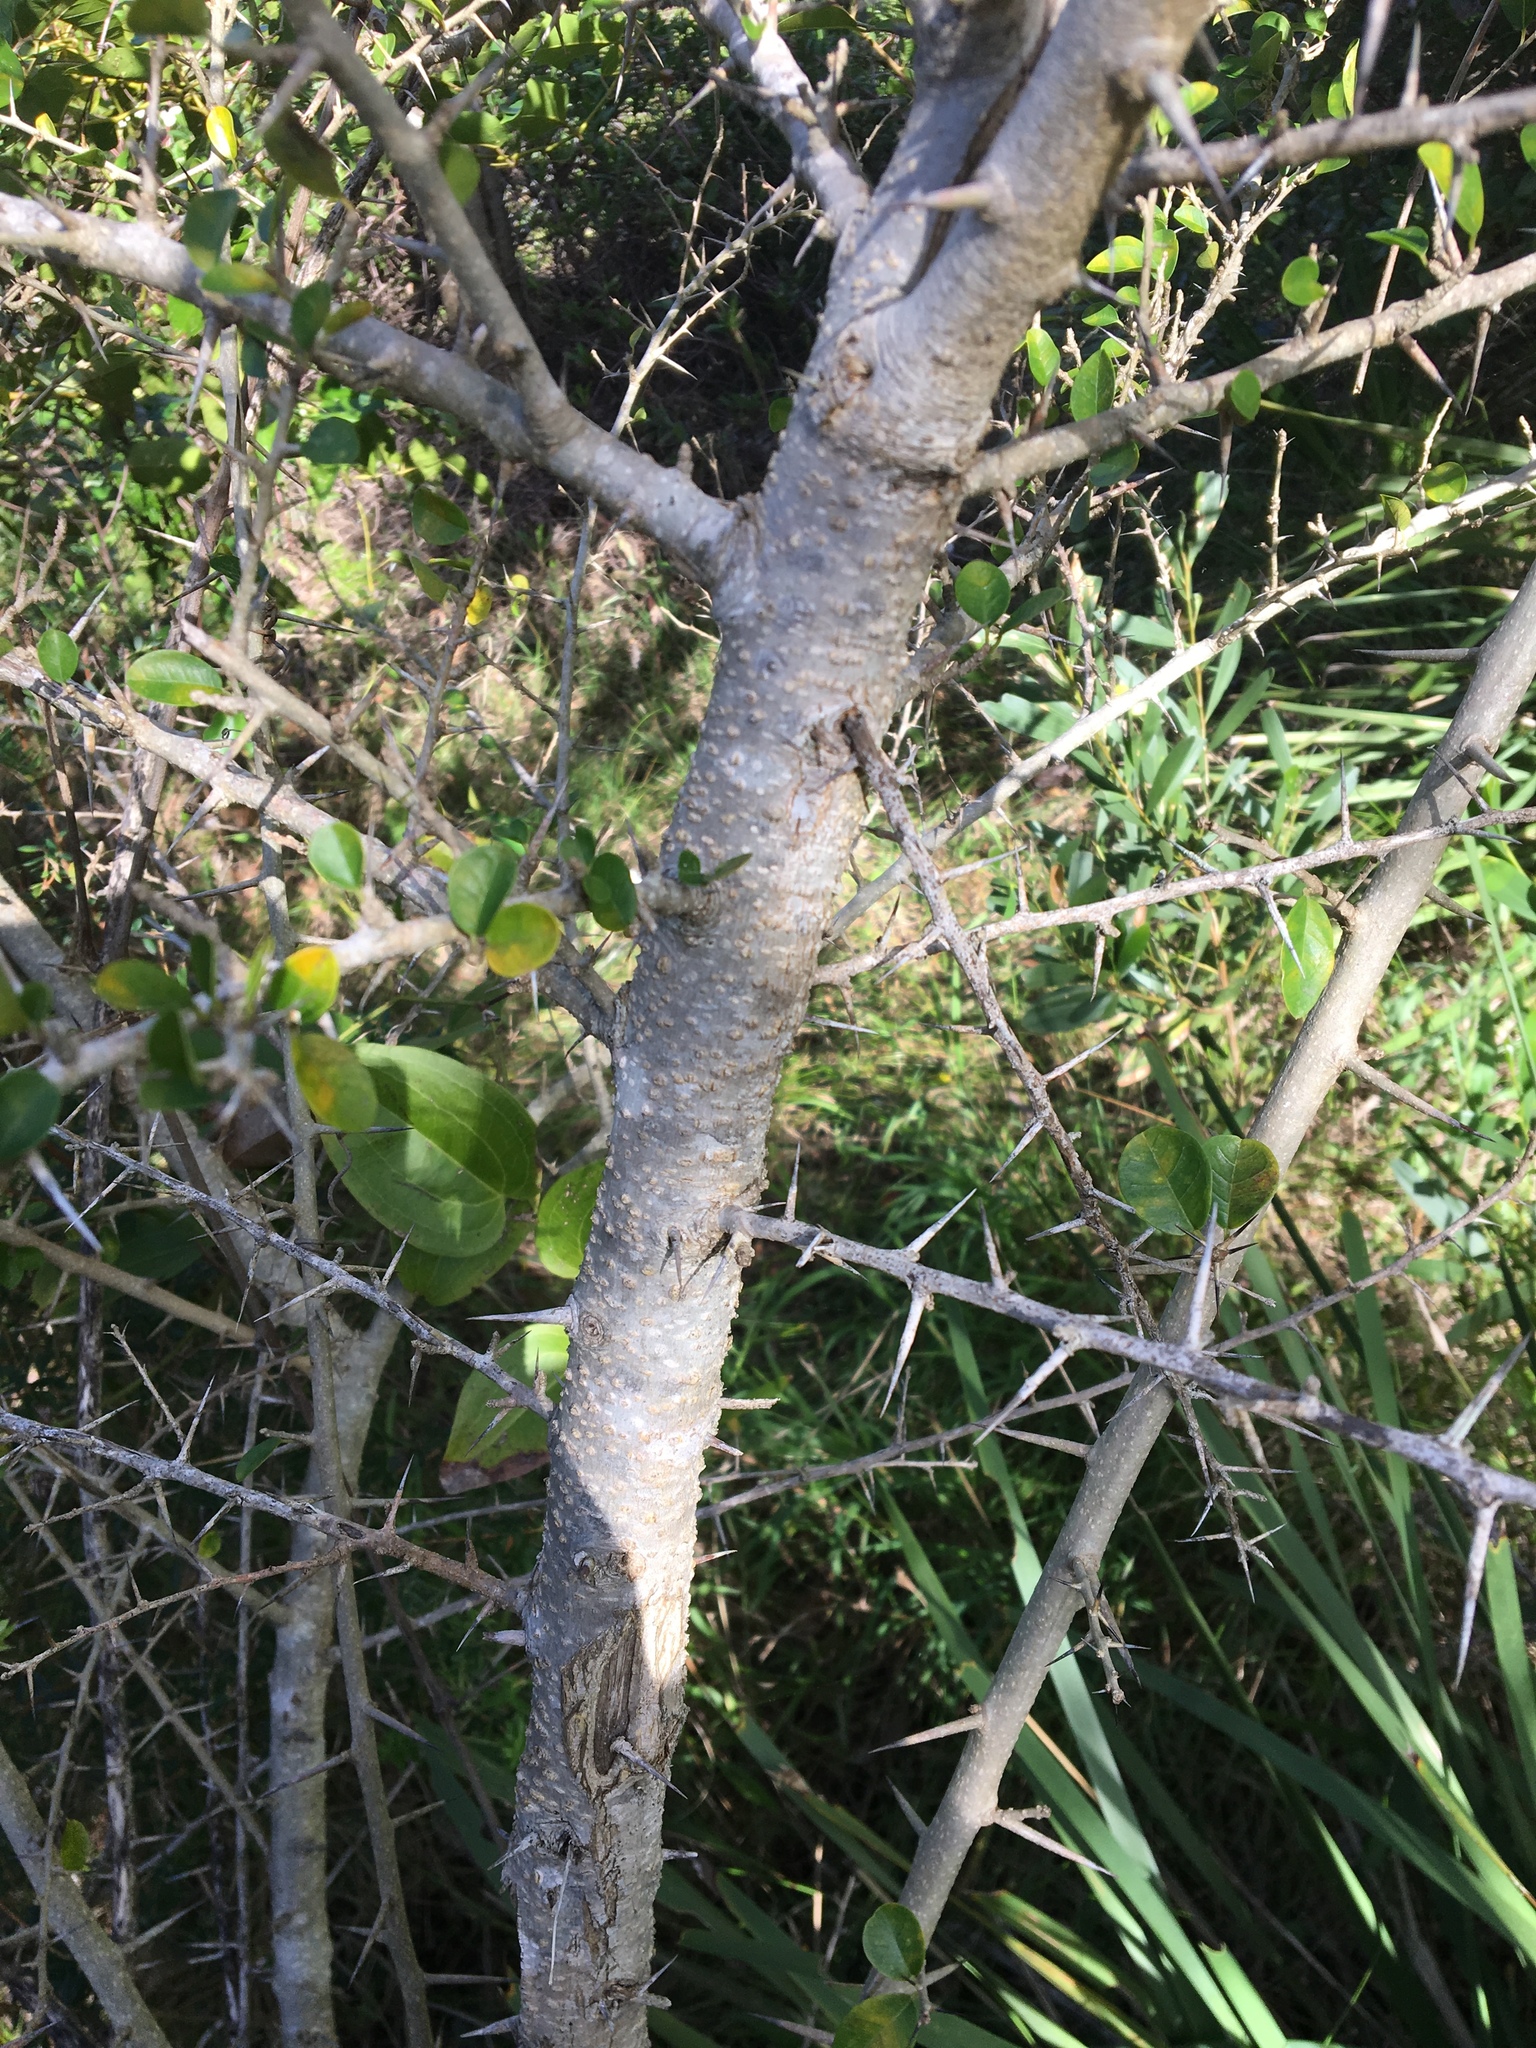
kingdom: Plantae
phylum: Tracheophyta
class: Magnoliopsida
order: Rosales
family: Moraceae
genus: Maclura
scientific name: Maclura cochinchinensis
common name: Cockspurthorn
